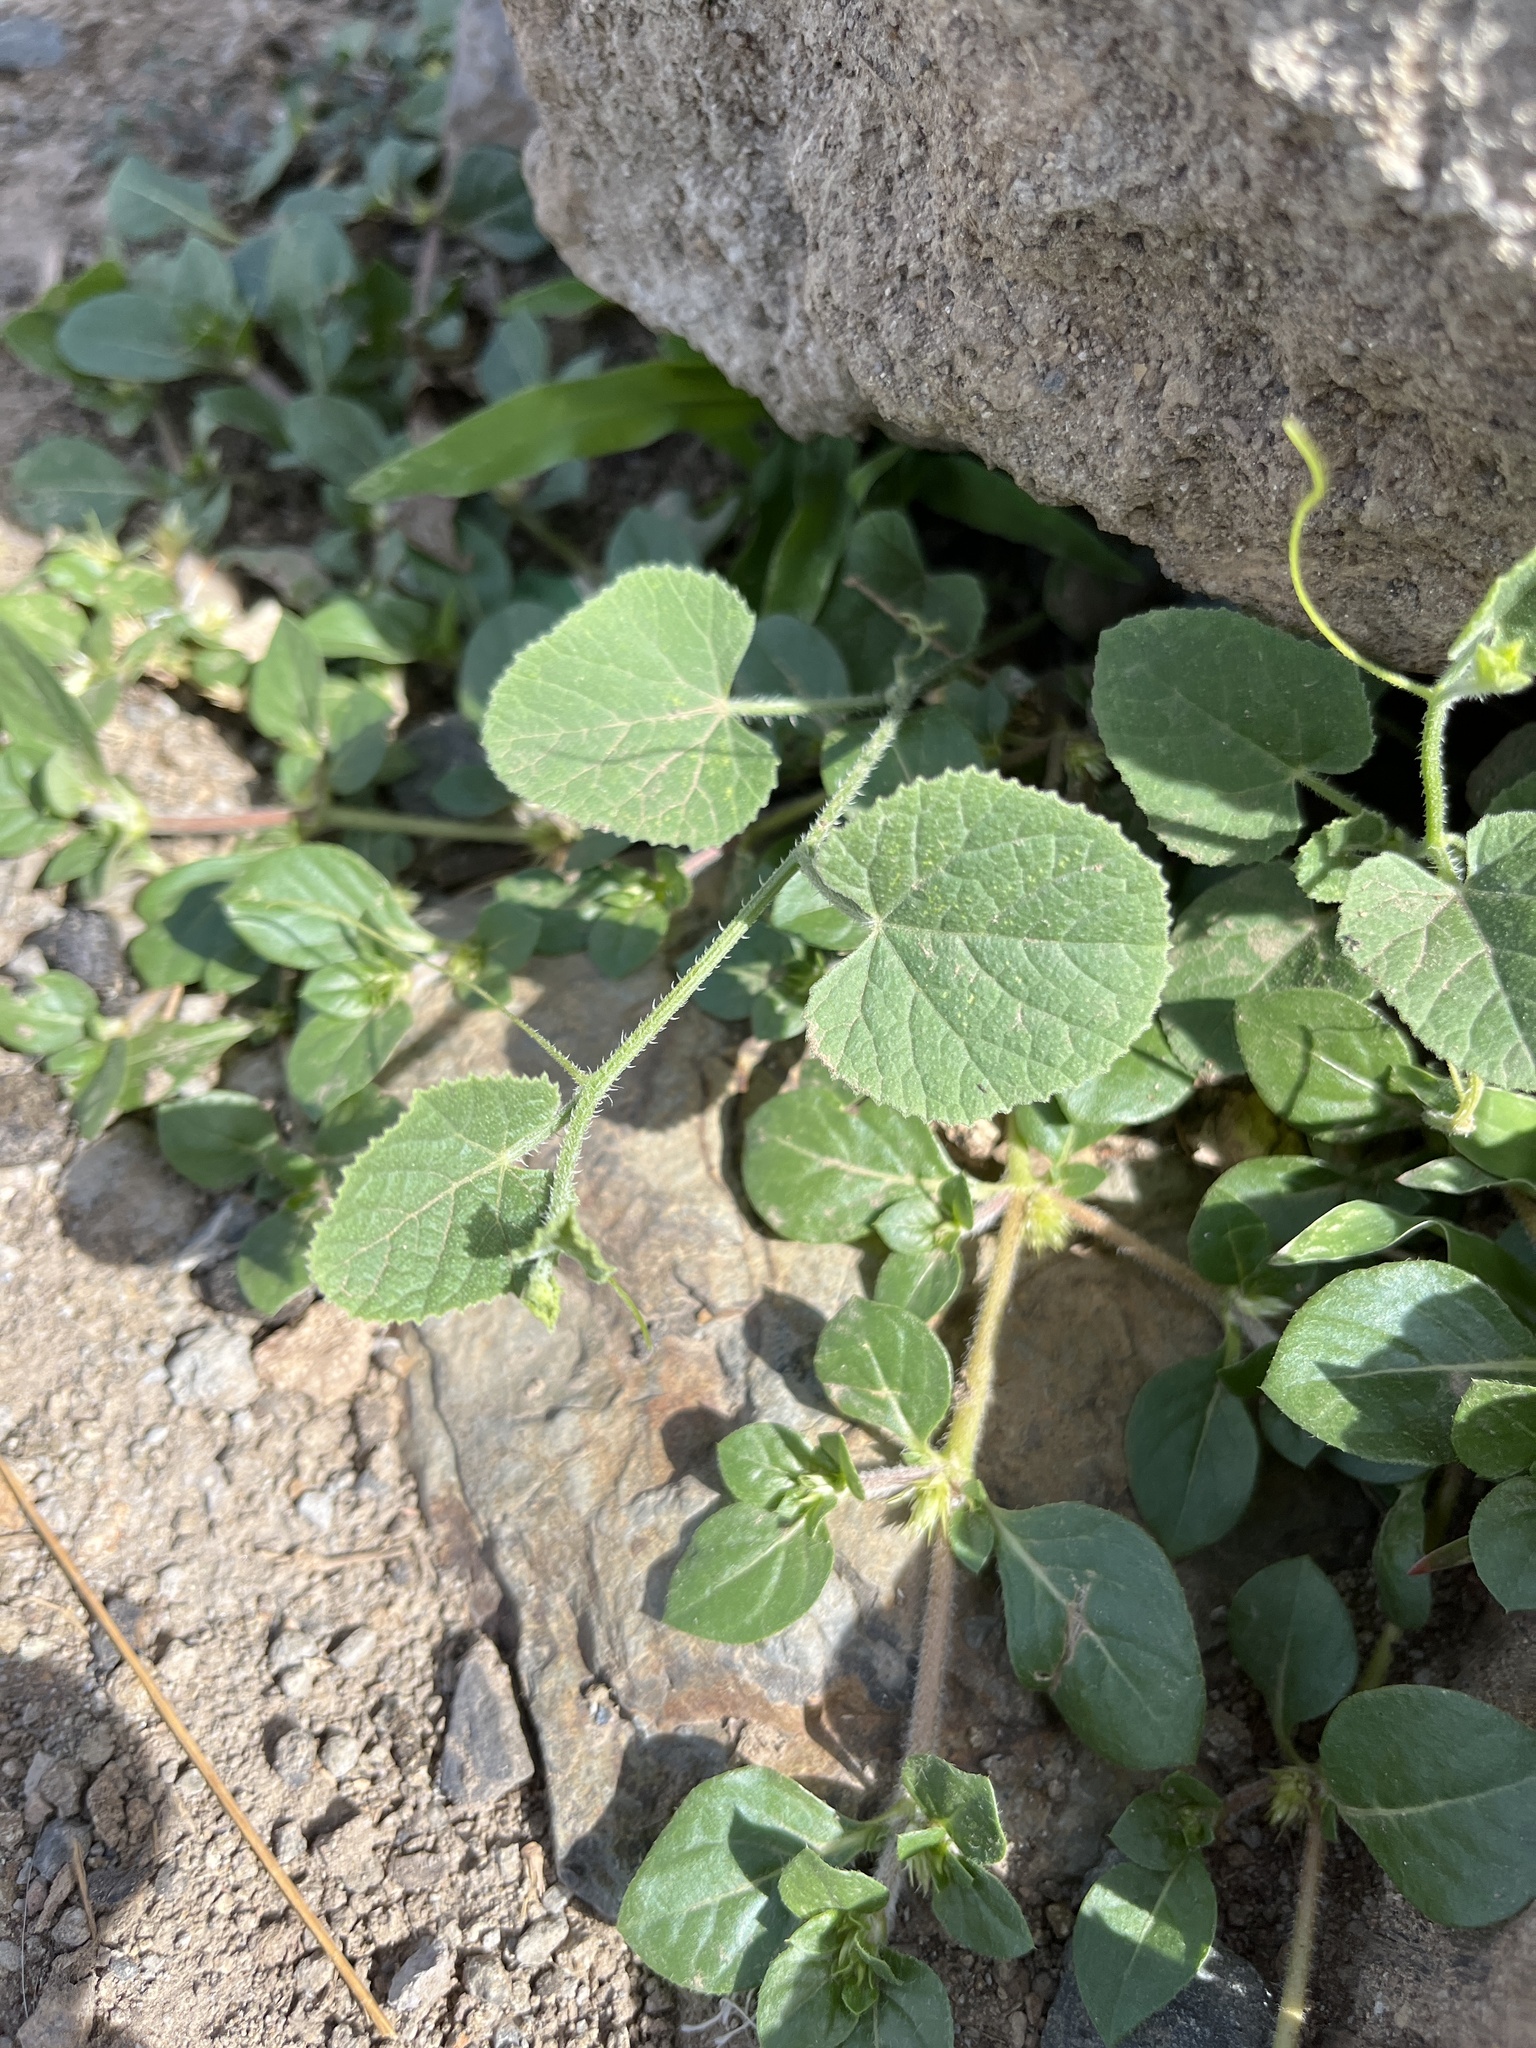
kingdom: Plantae
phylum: Tracheophyta
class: Magnoliopsida
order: Cucurbitales
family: Cucurbitaceae
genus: Cucumis
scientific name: Cucumis dipsaceus
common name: Hedgehog gourd
